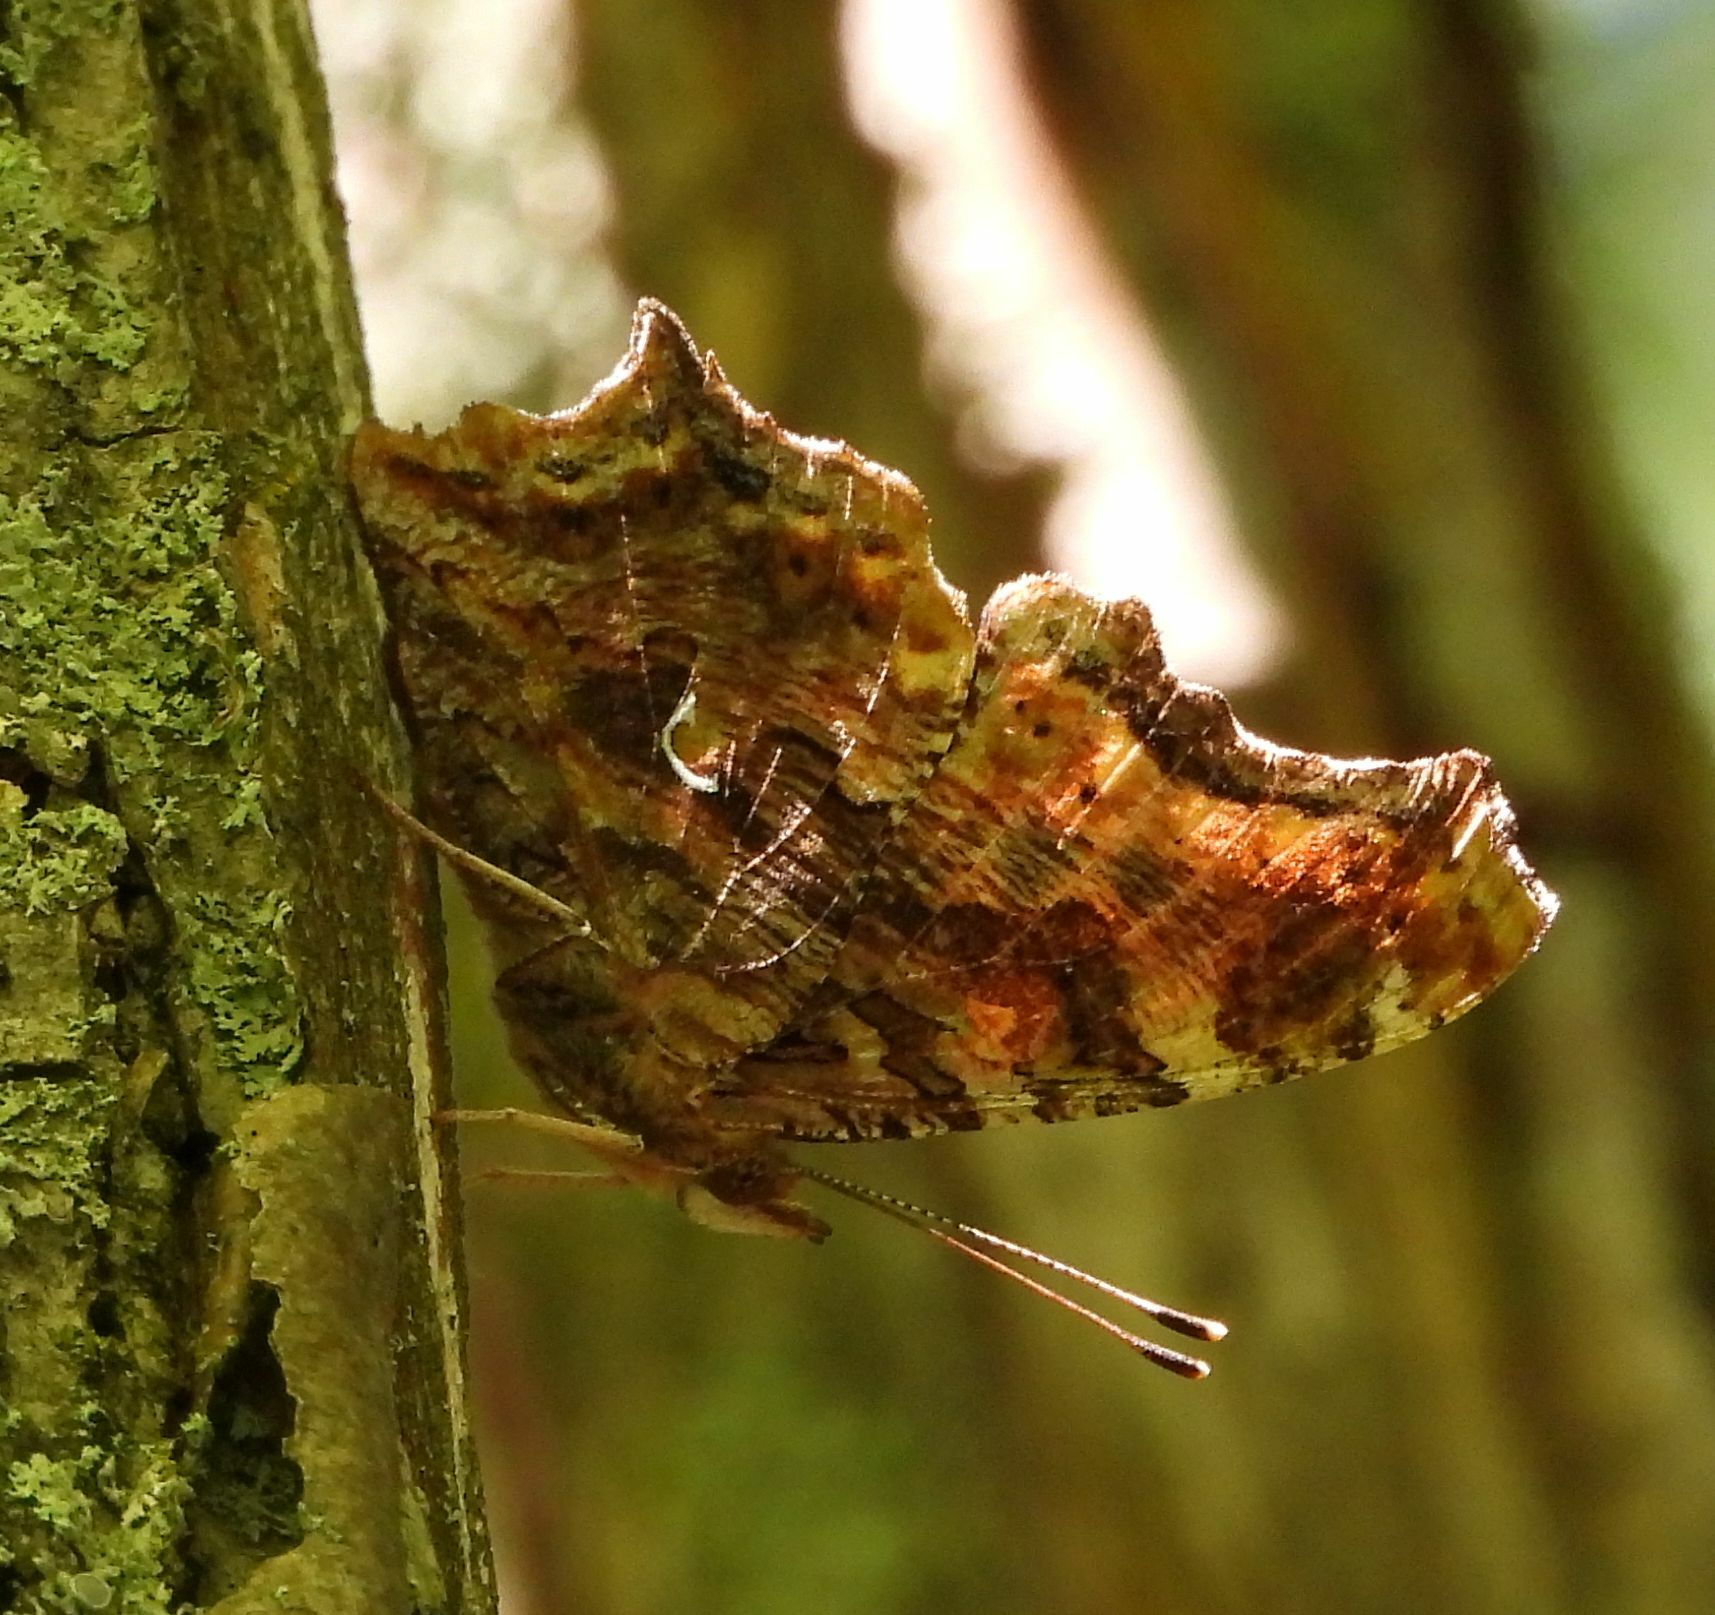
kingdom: Animalia
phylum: Arthropoda
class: Insecta
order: Lepidoptera
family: Nymphalidae
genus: Polygonia
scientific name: Polygonia comma
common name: Eastern comma
